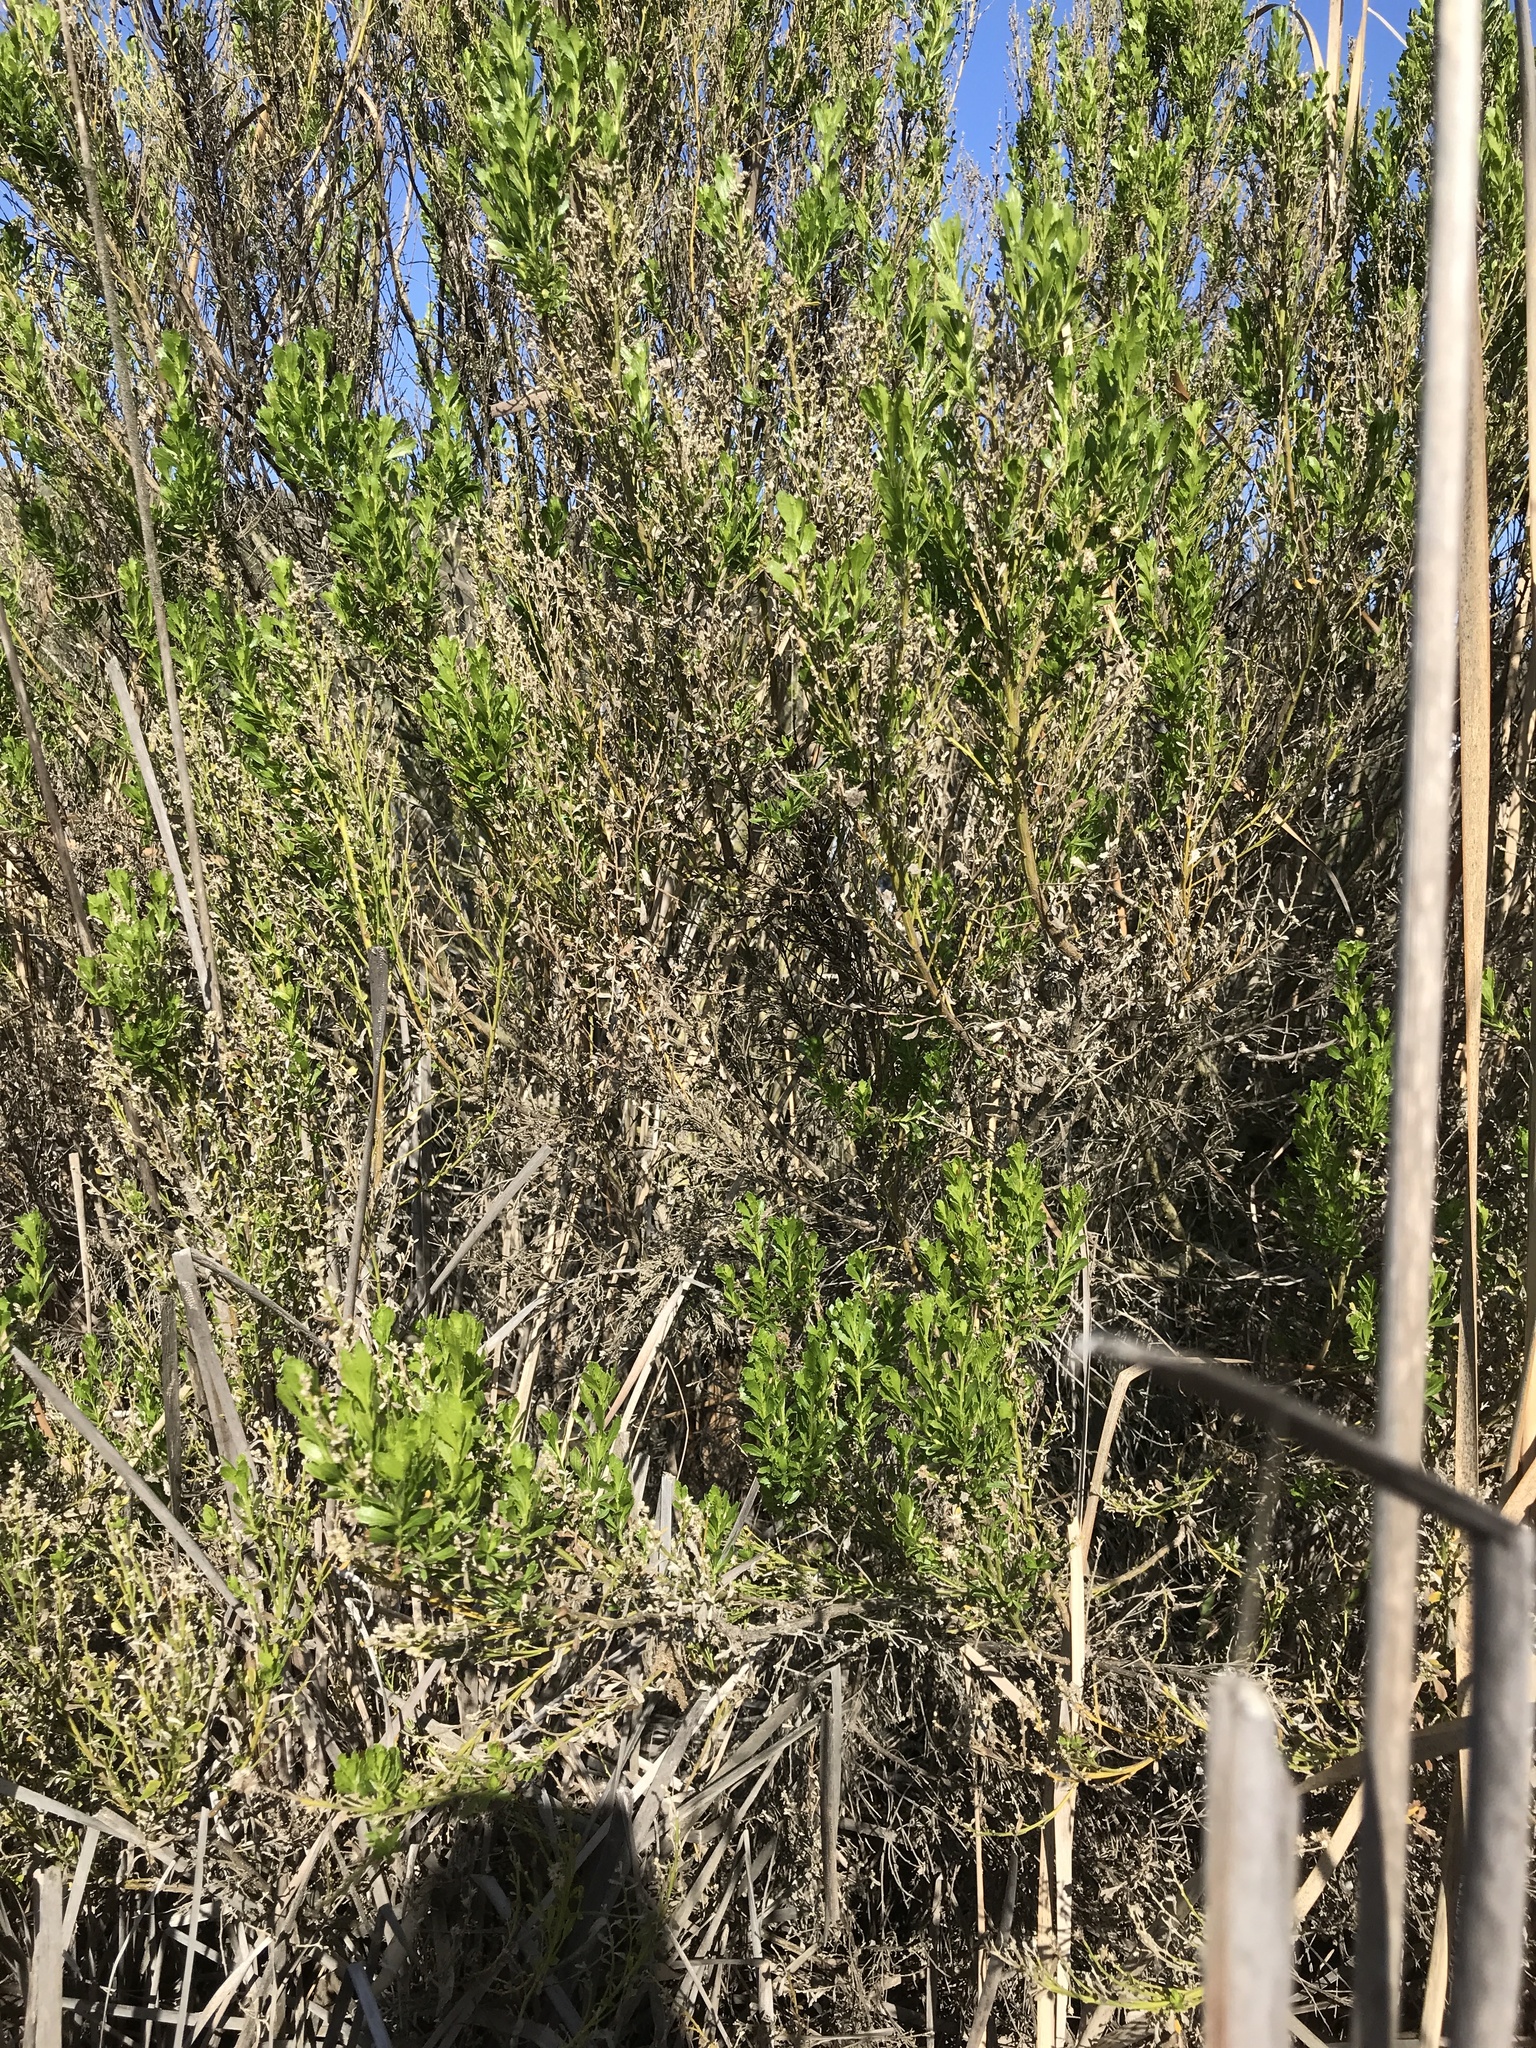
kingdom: Plantae
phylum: Tracheophyta
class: Magnoliopsida
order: Asterales
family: Asteraceae
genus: Baccharis
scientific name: Baccharis pilularis
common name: Coyotebrush
